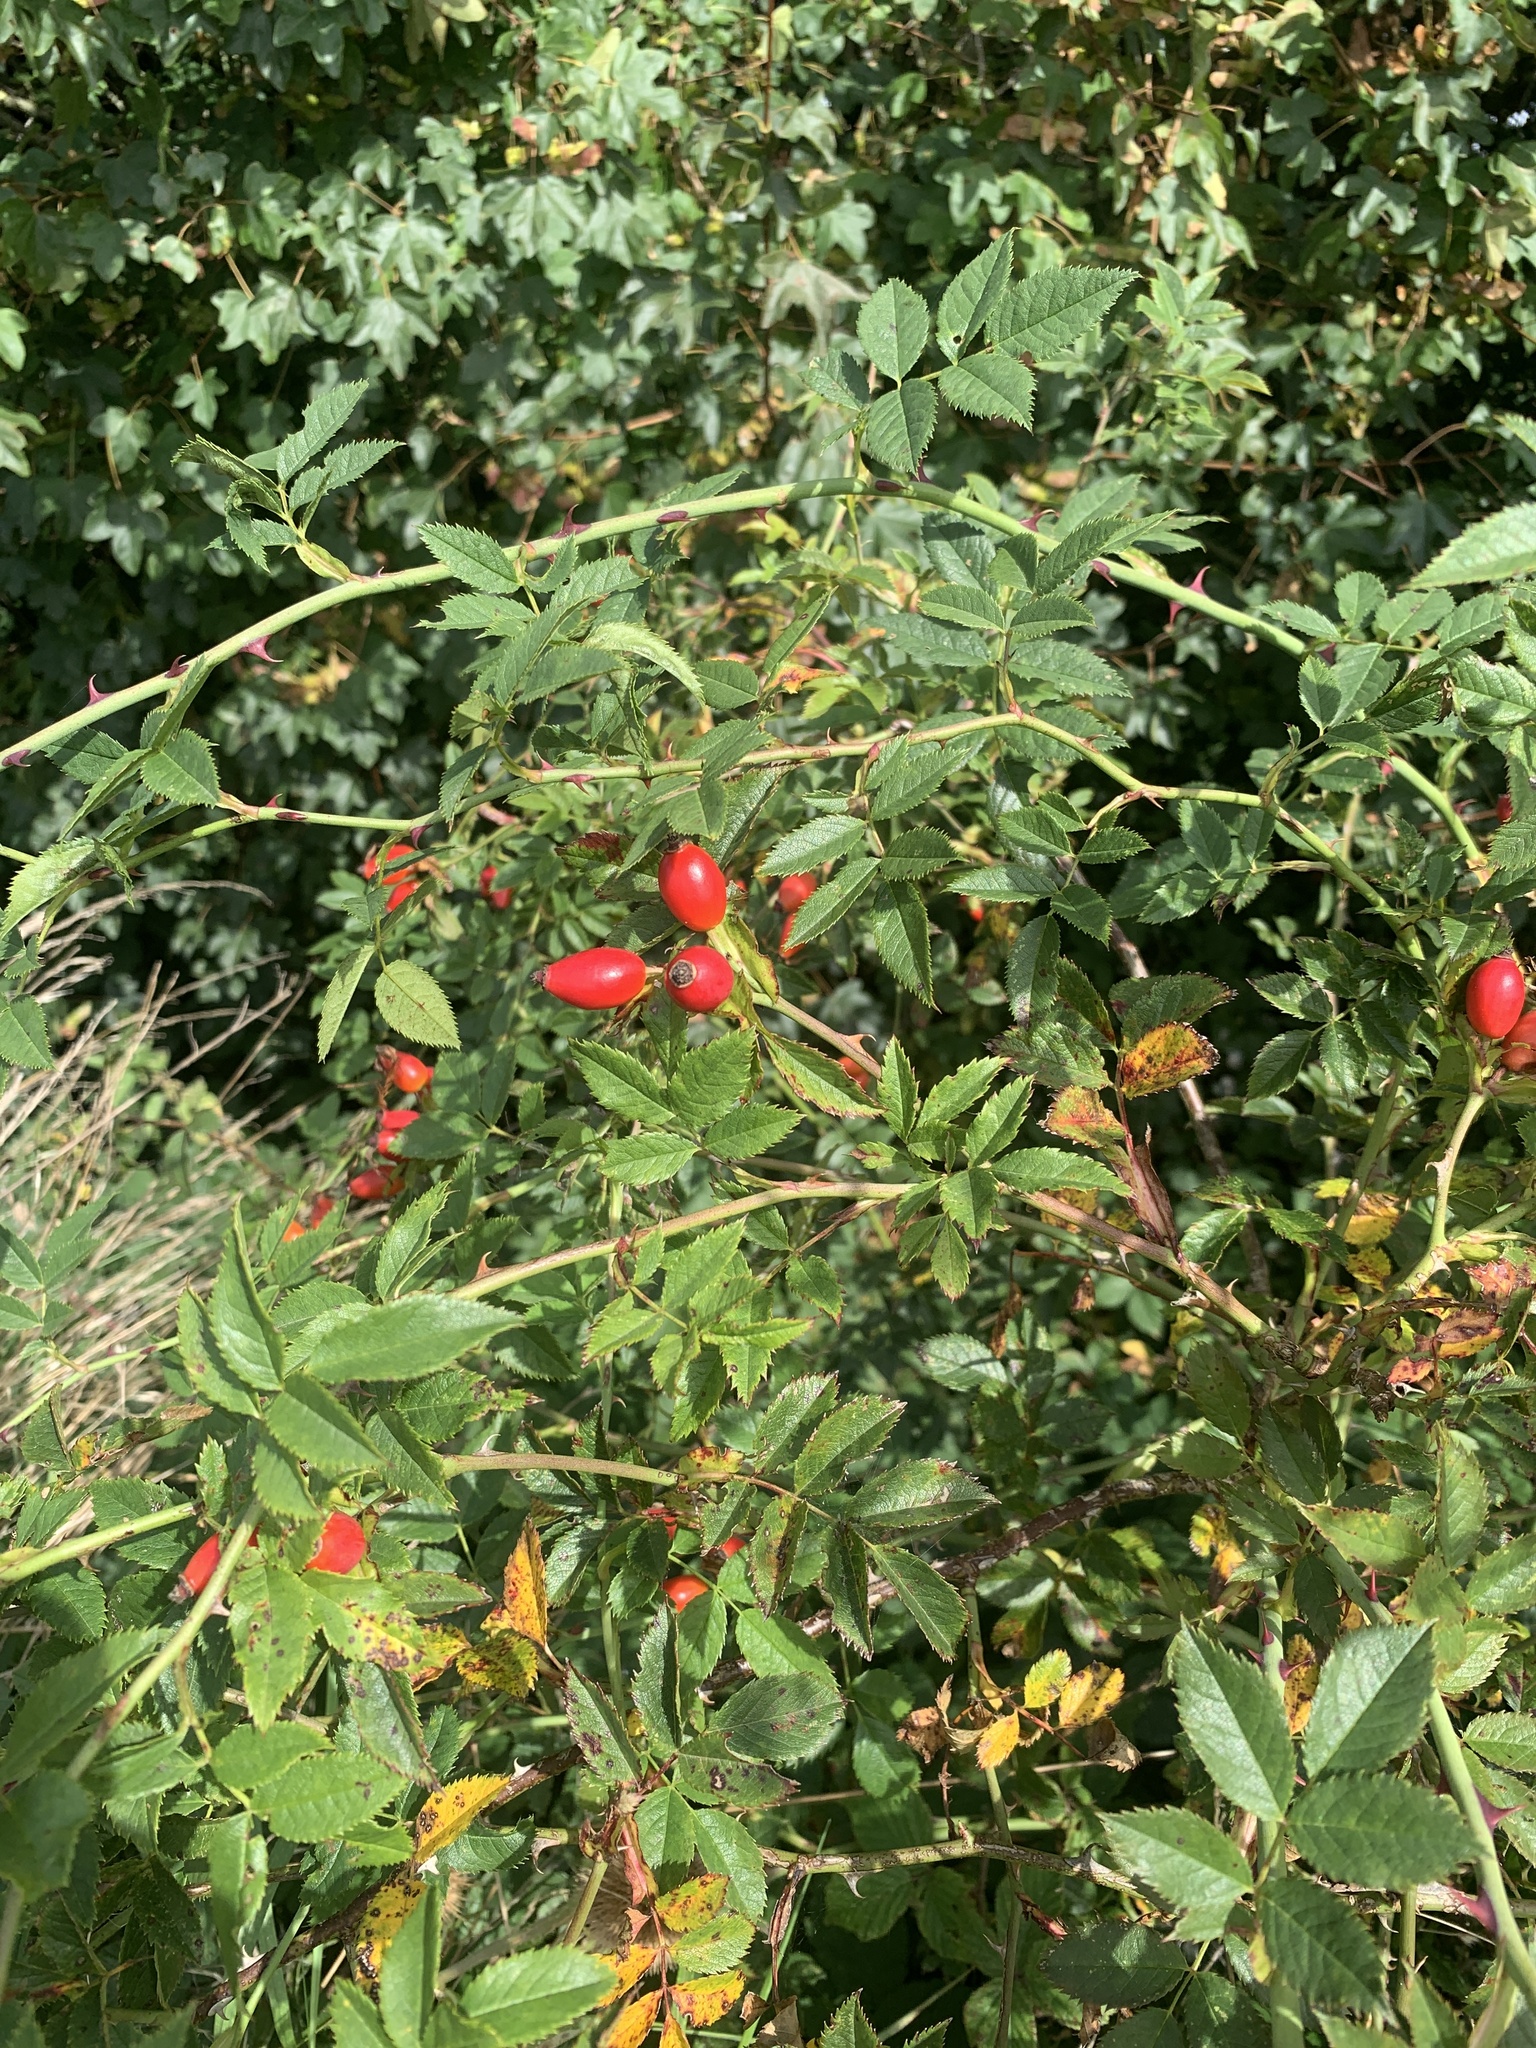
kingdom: Plantae
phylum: Tracheophyta
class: Magnoliopsida
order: Rosales
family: Rosaceae
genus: Rosa
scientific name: Rosa canina
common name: Dog rose
